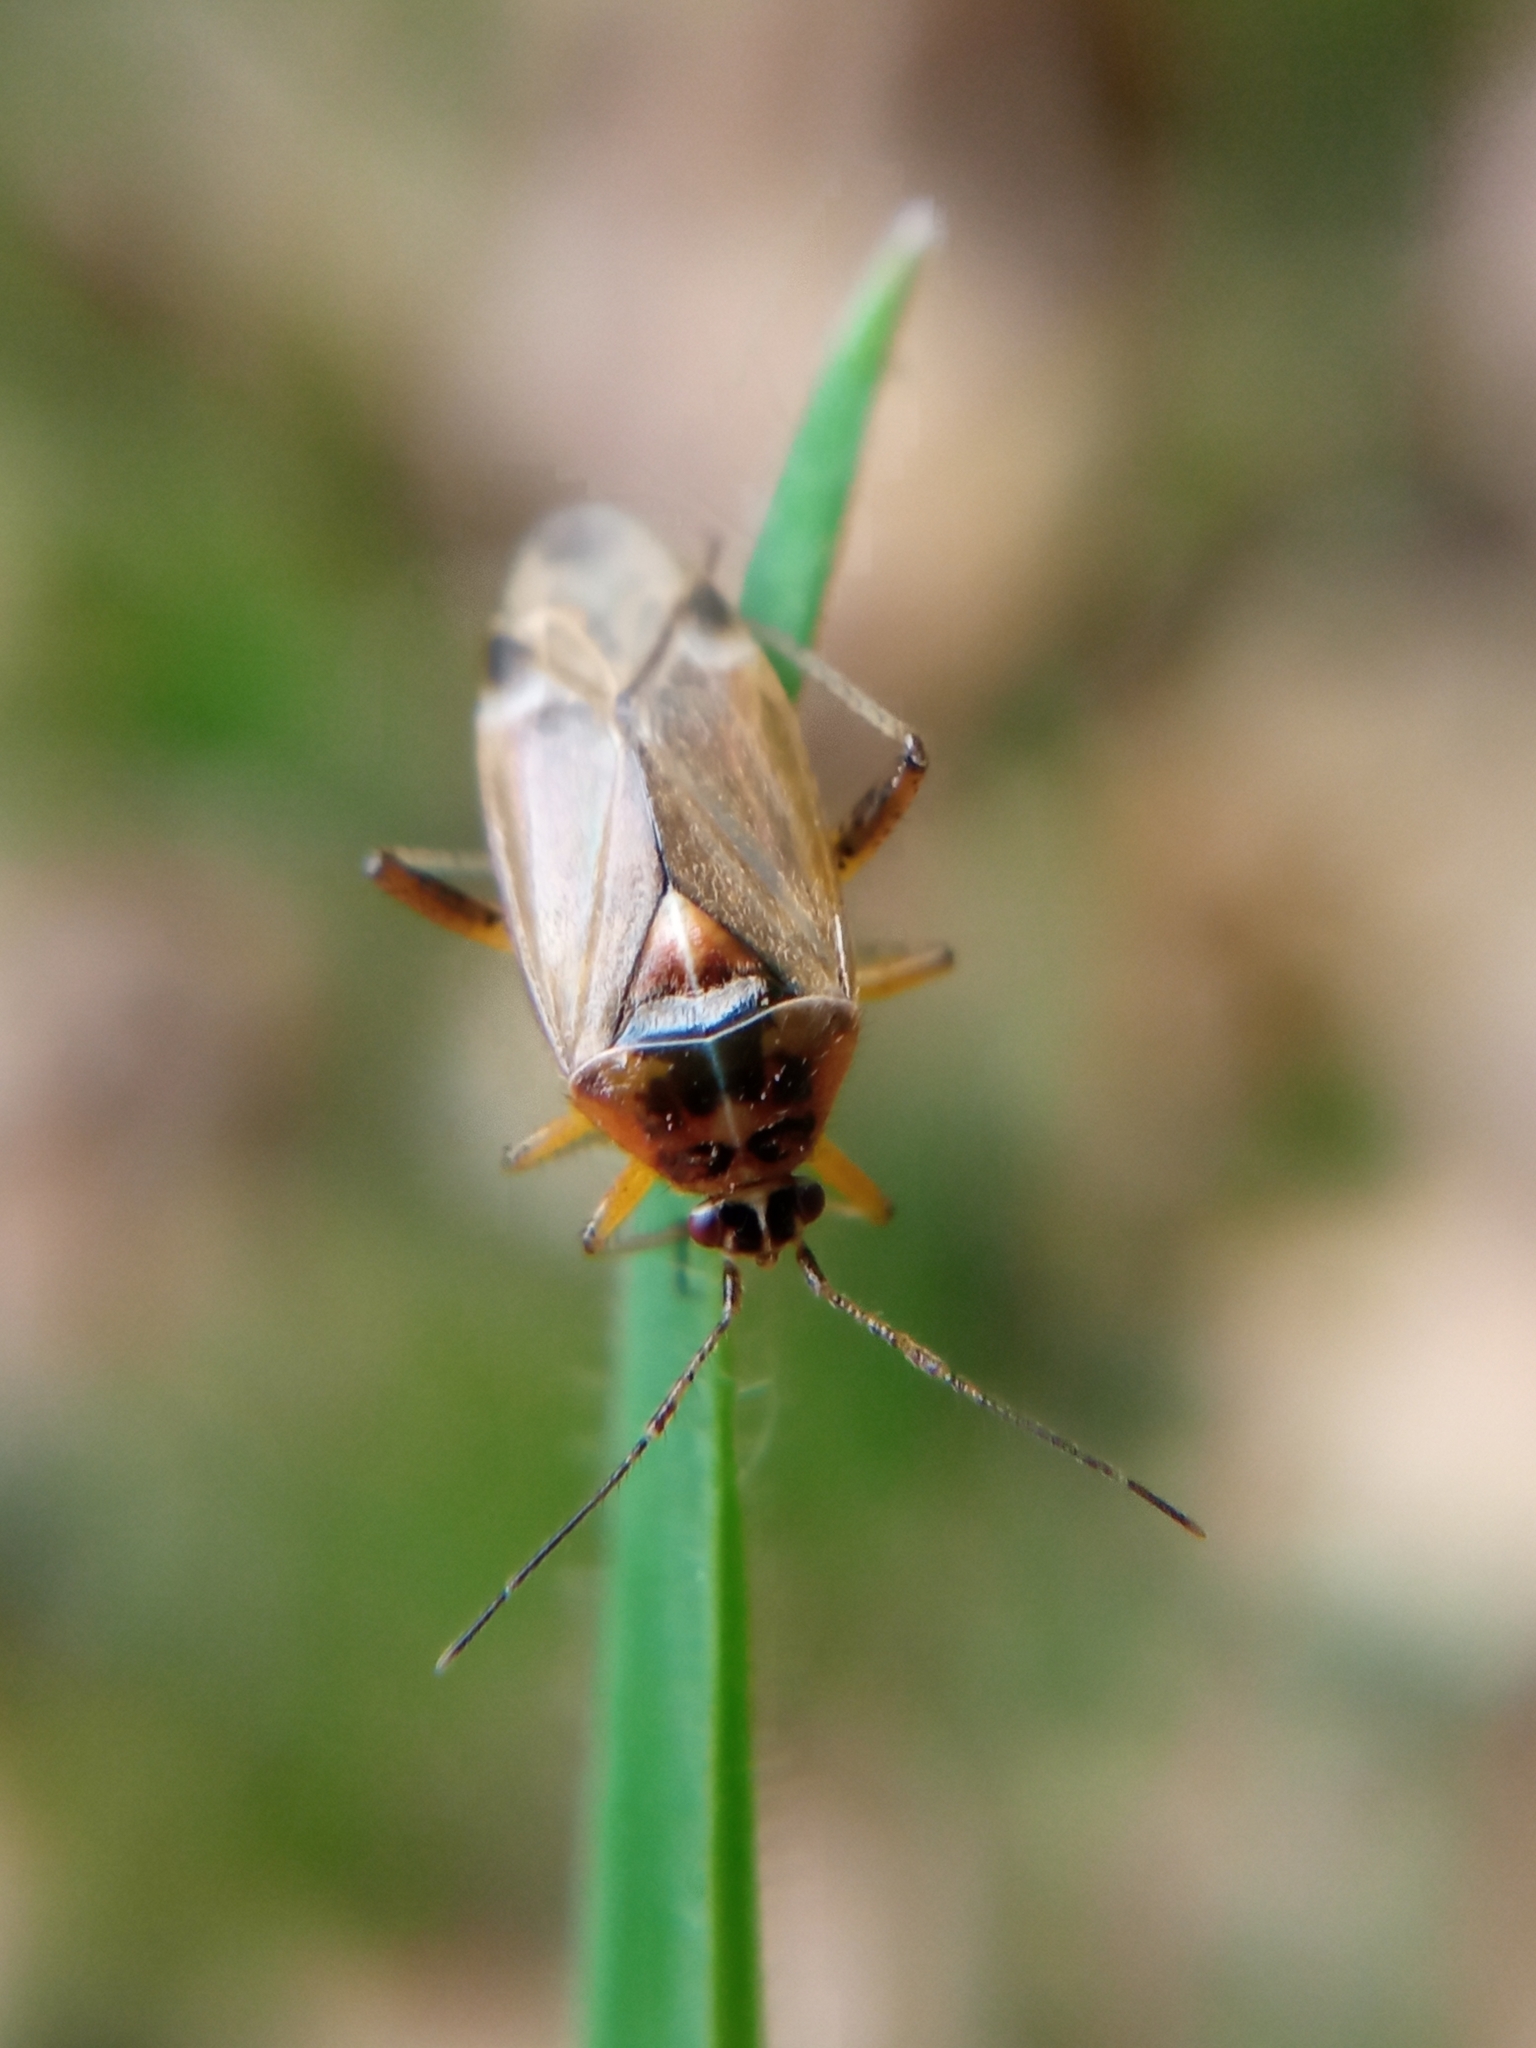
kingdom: Animalia
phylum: Arthropoda
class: Insecta
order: Hemiptera
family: Miridae
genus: Harpocera
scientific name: Harpocera thoracica
